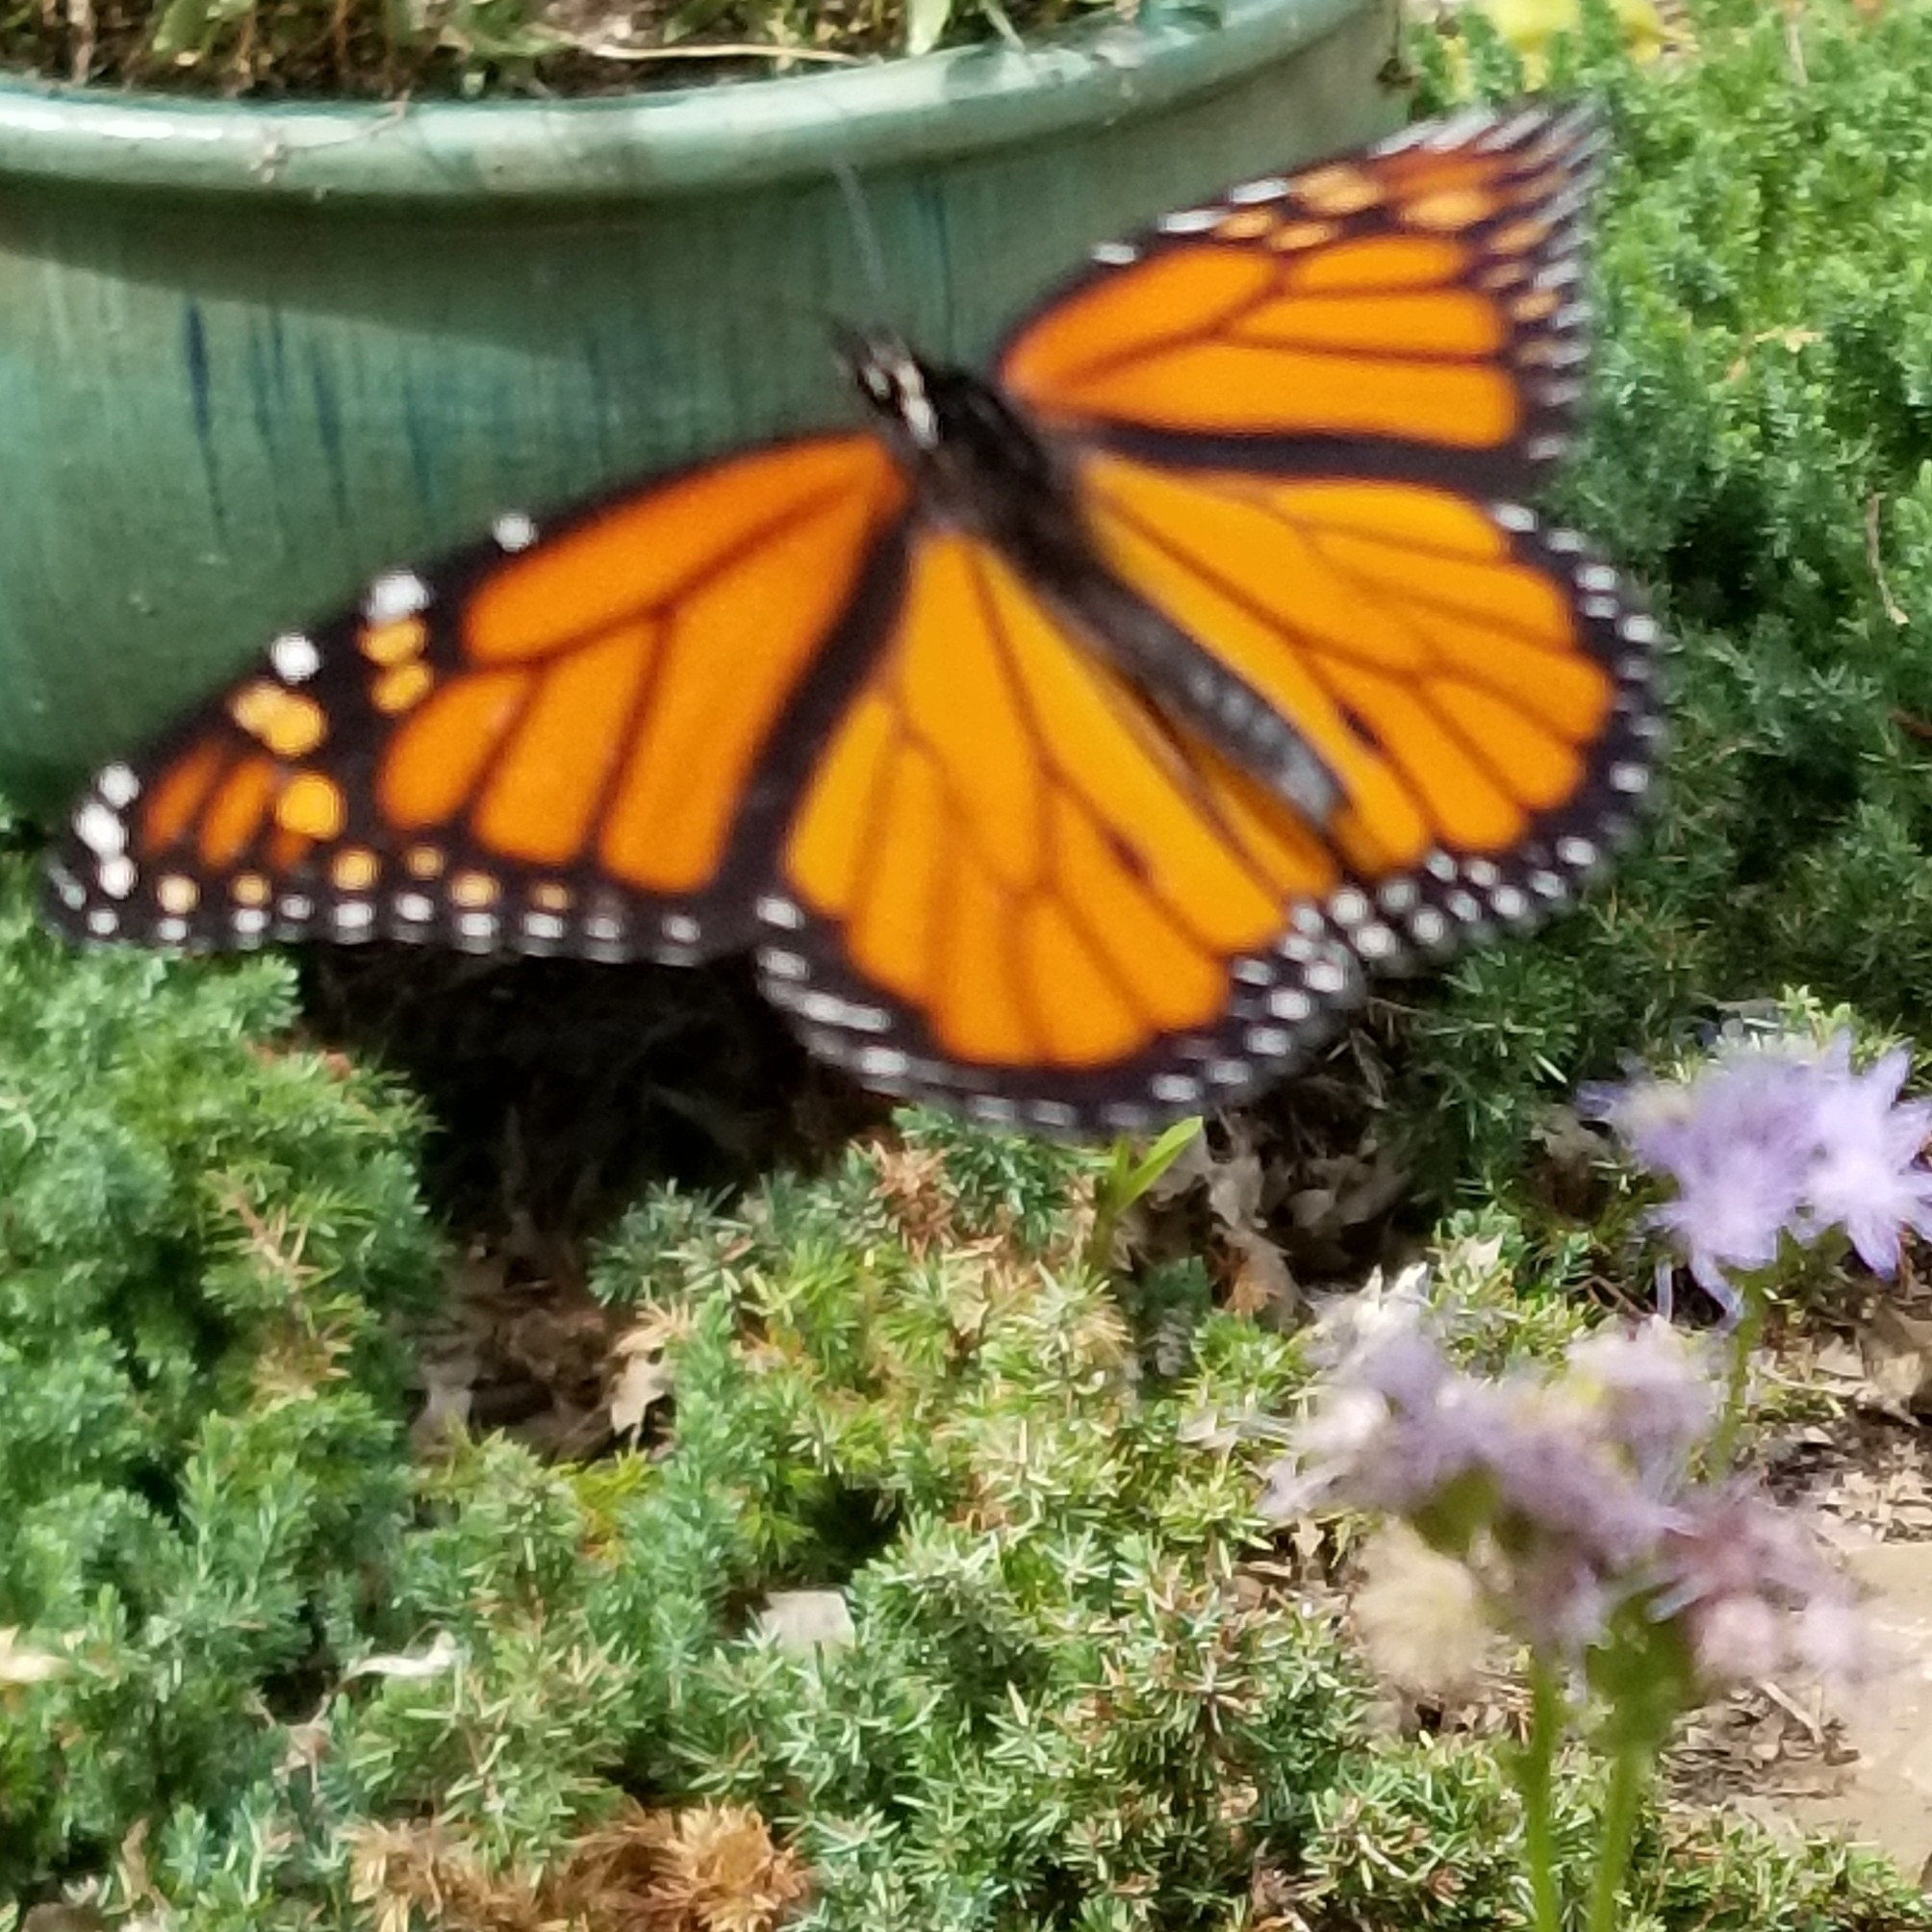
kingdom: Animalia
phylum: Arthropoda
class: Insecta
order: Lepidoptera
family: Nymphalidae
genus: Danaus
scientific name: Danaus plexippus
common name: Monarch
